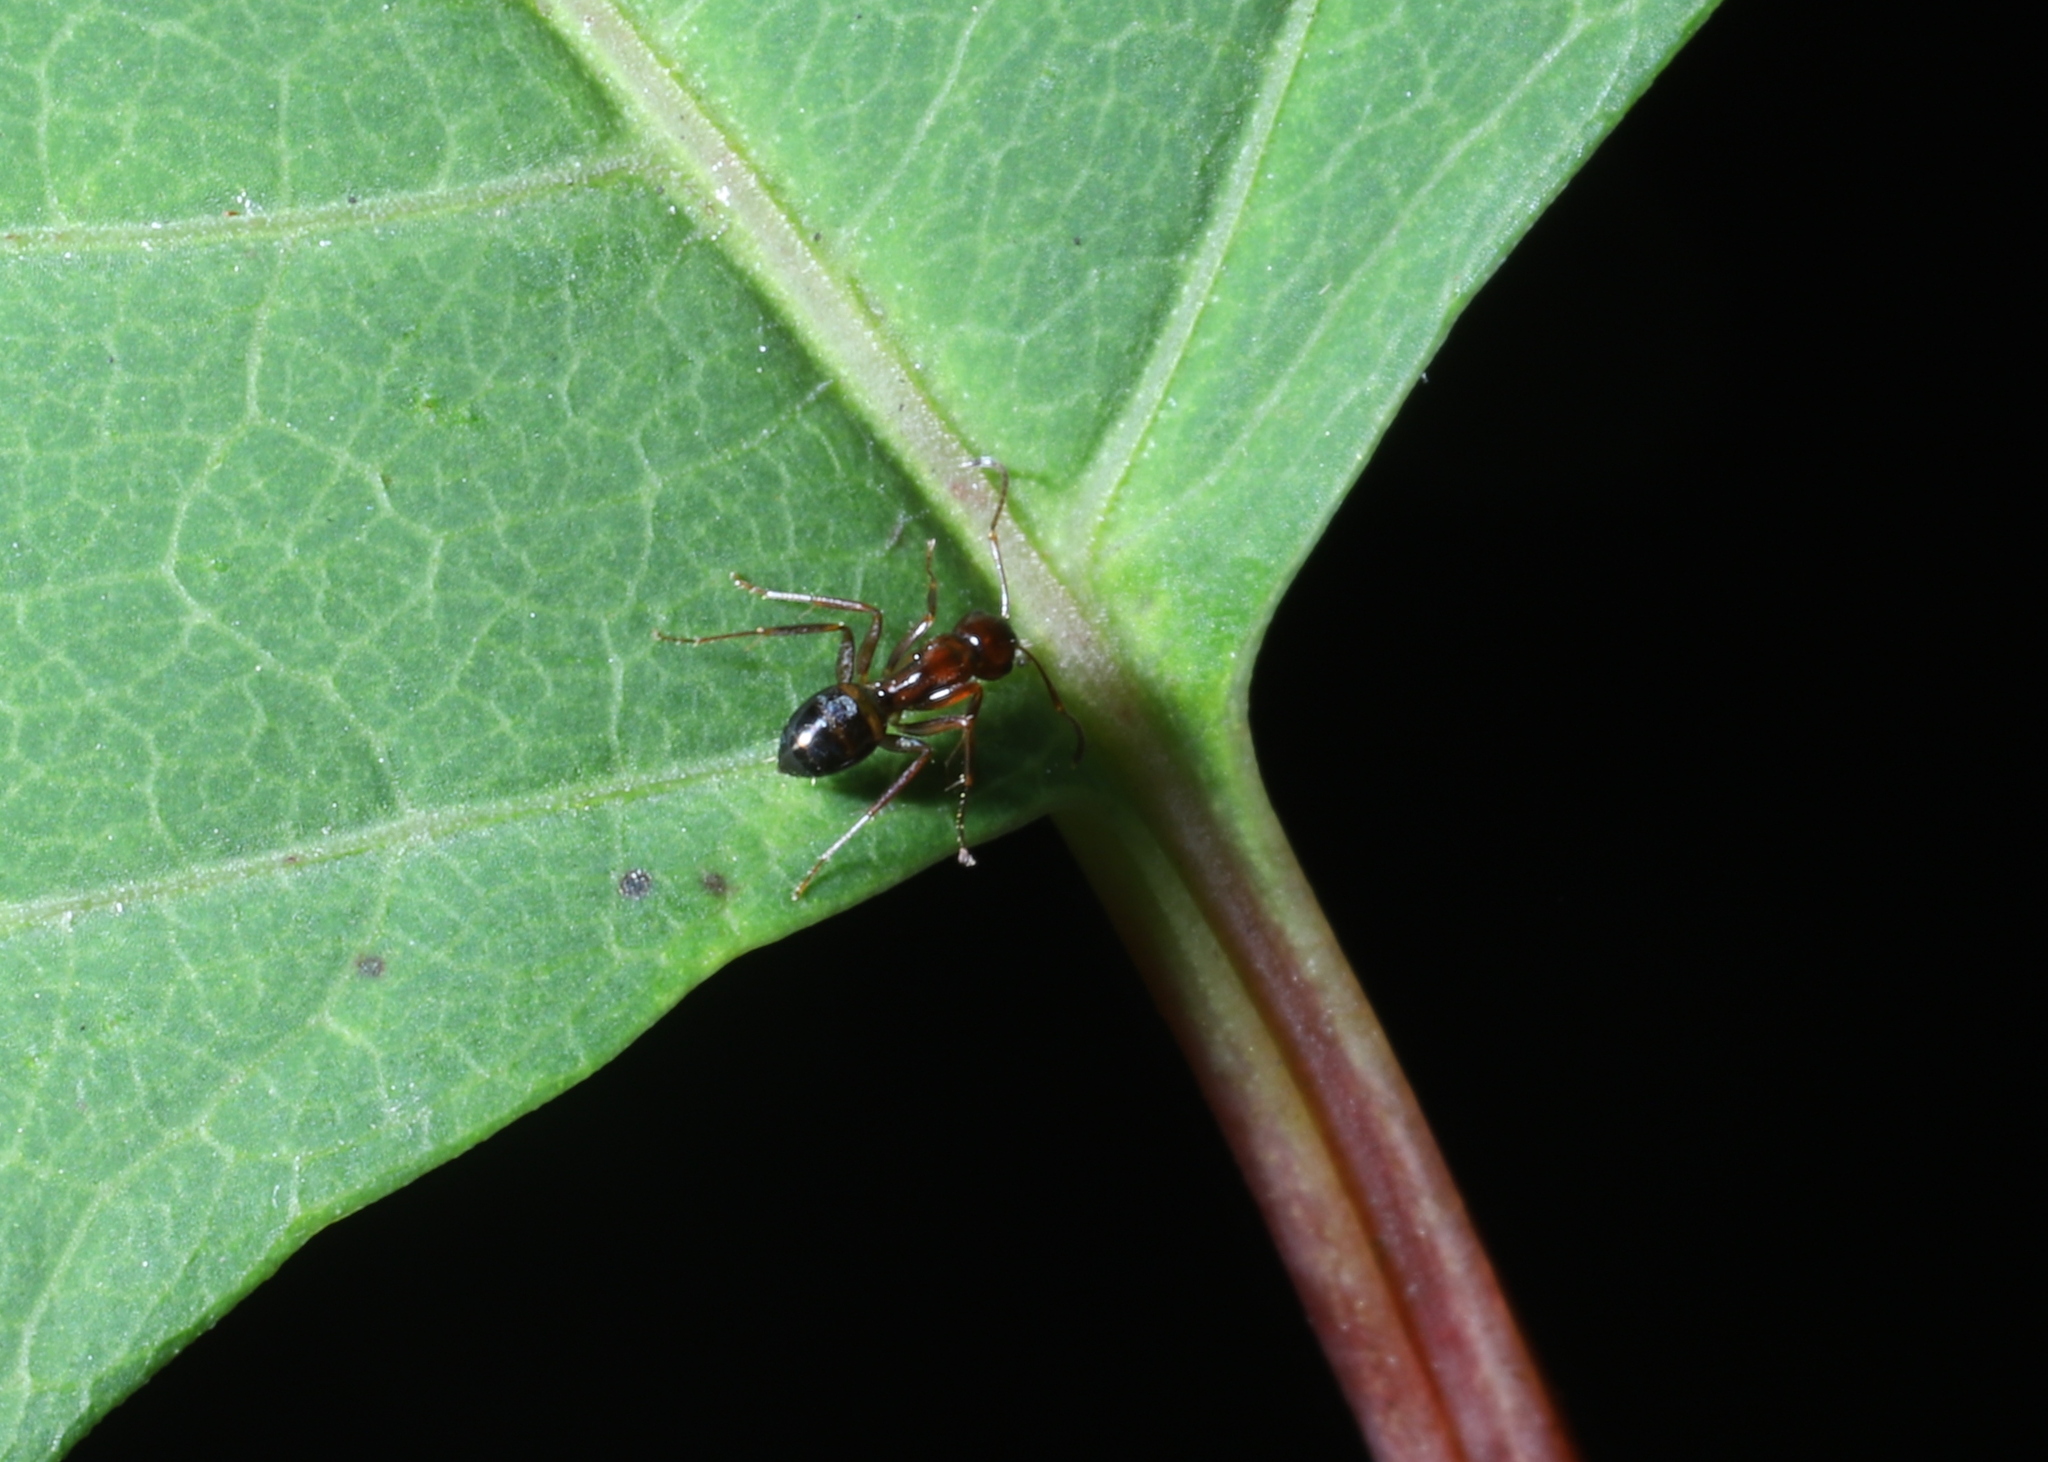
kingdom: Animalia
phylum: Arthropoda
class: Insecta
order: Hymenoptera
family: Formicidae
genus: Camponotus
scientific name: Camponotus subbarbatus
